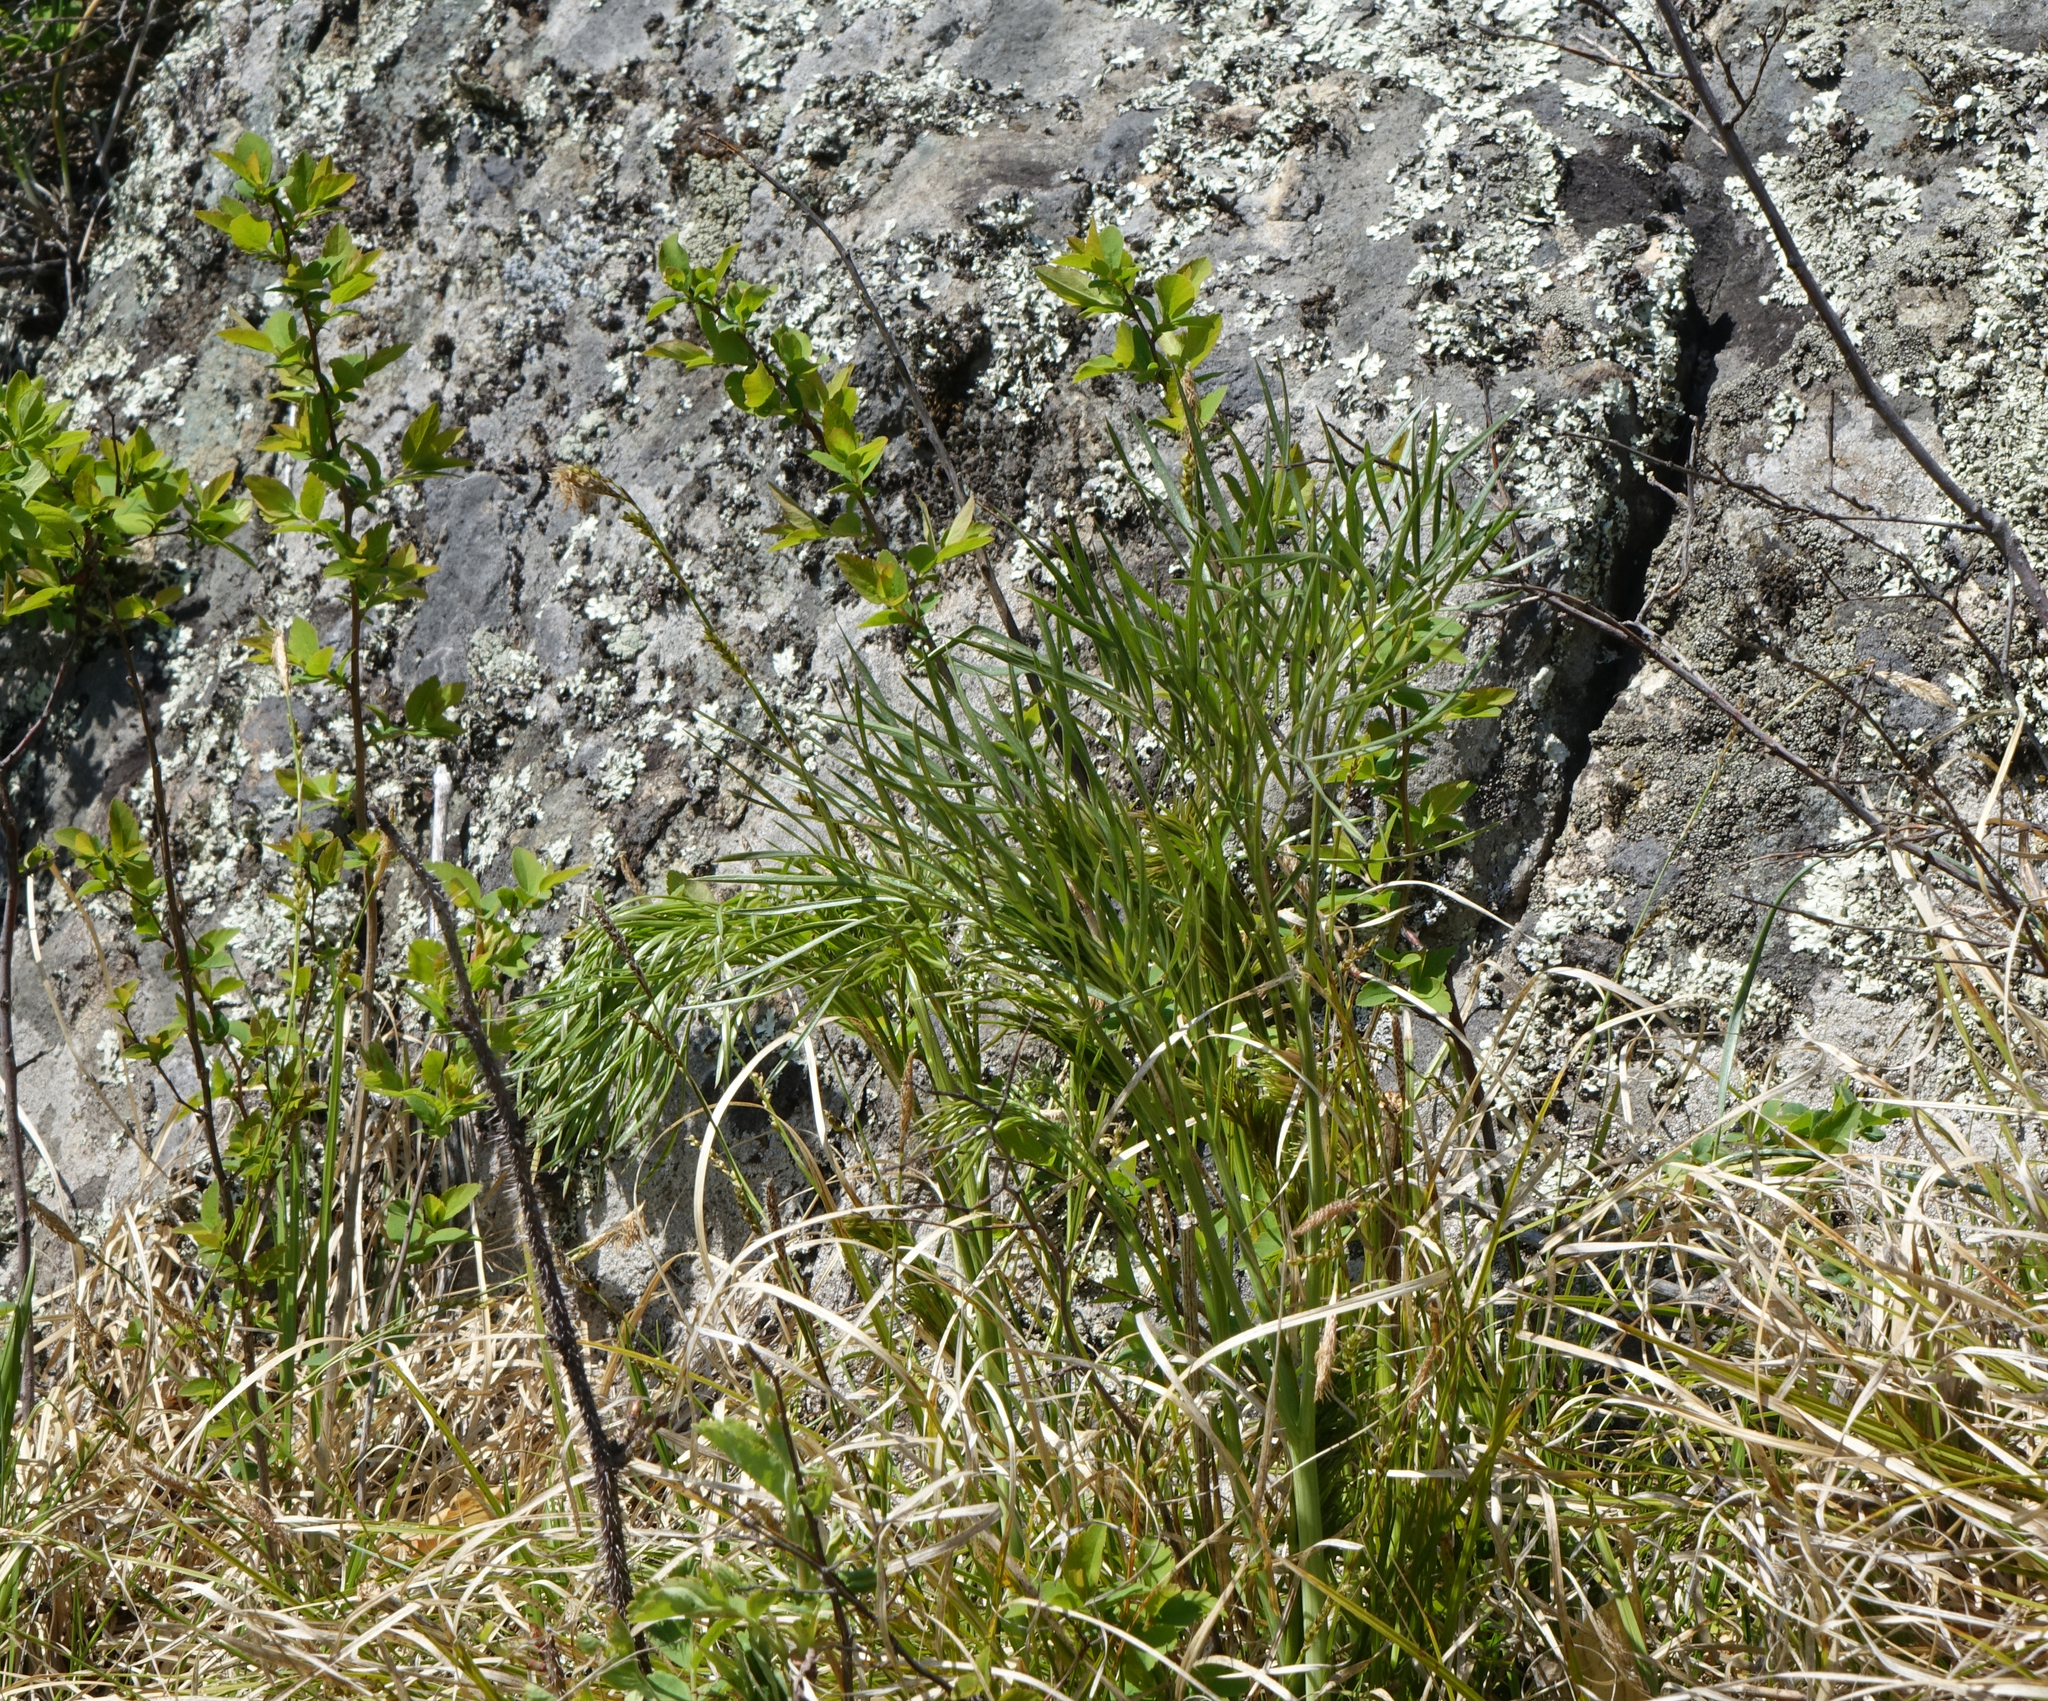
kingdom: Plantae
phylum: Tracheophyta
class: Magnoliopsida
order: Apiales
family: Apiaceae
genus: Peucedanum
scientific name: Peucedanum morisonii
